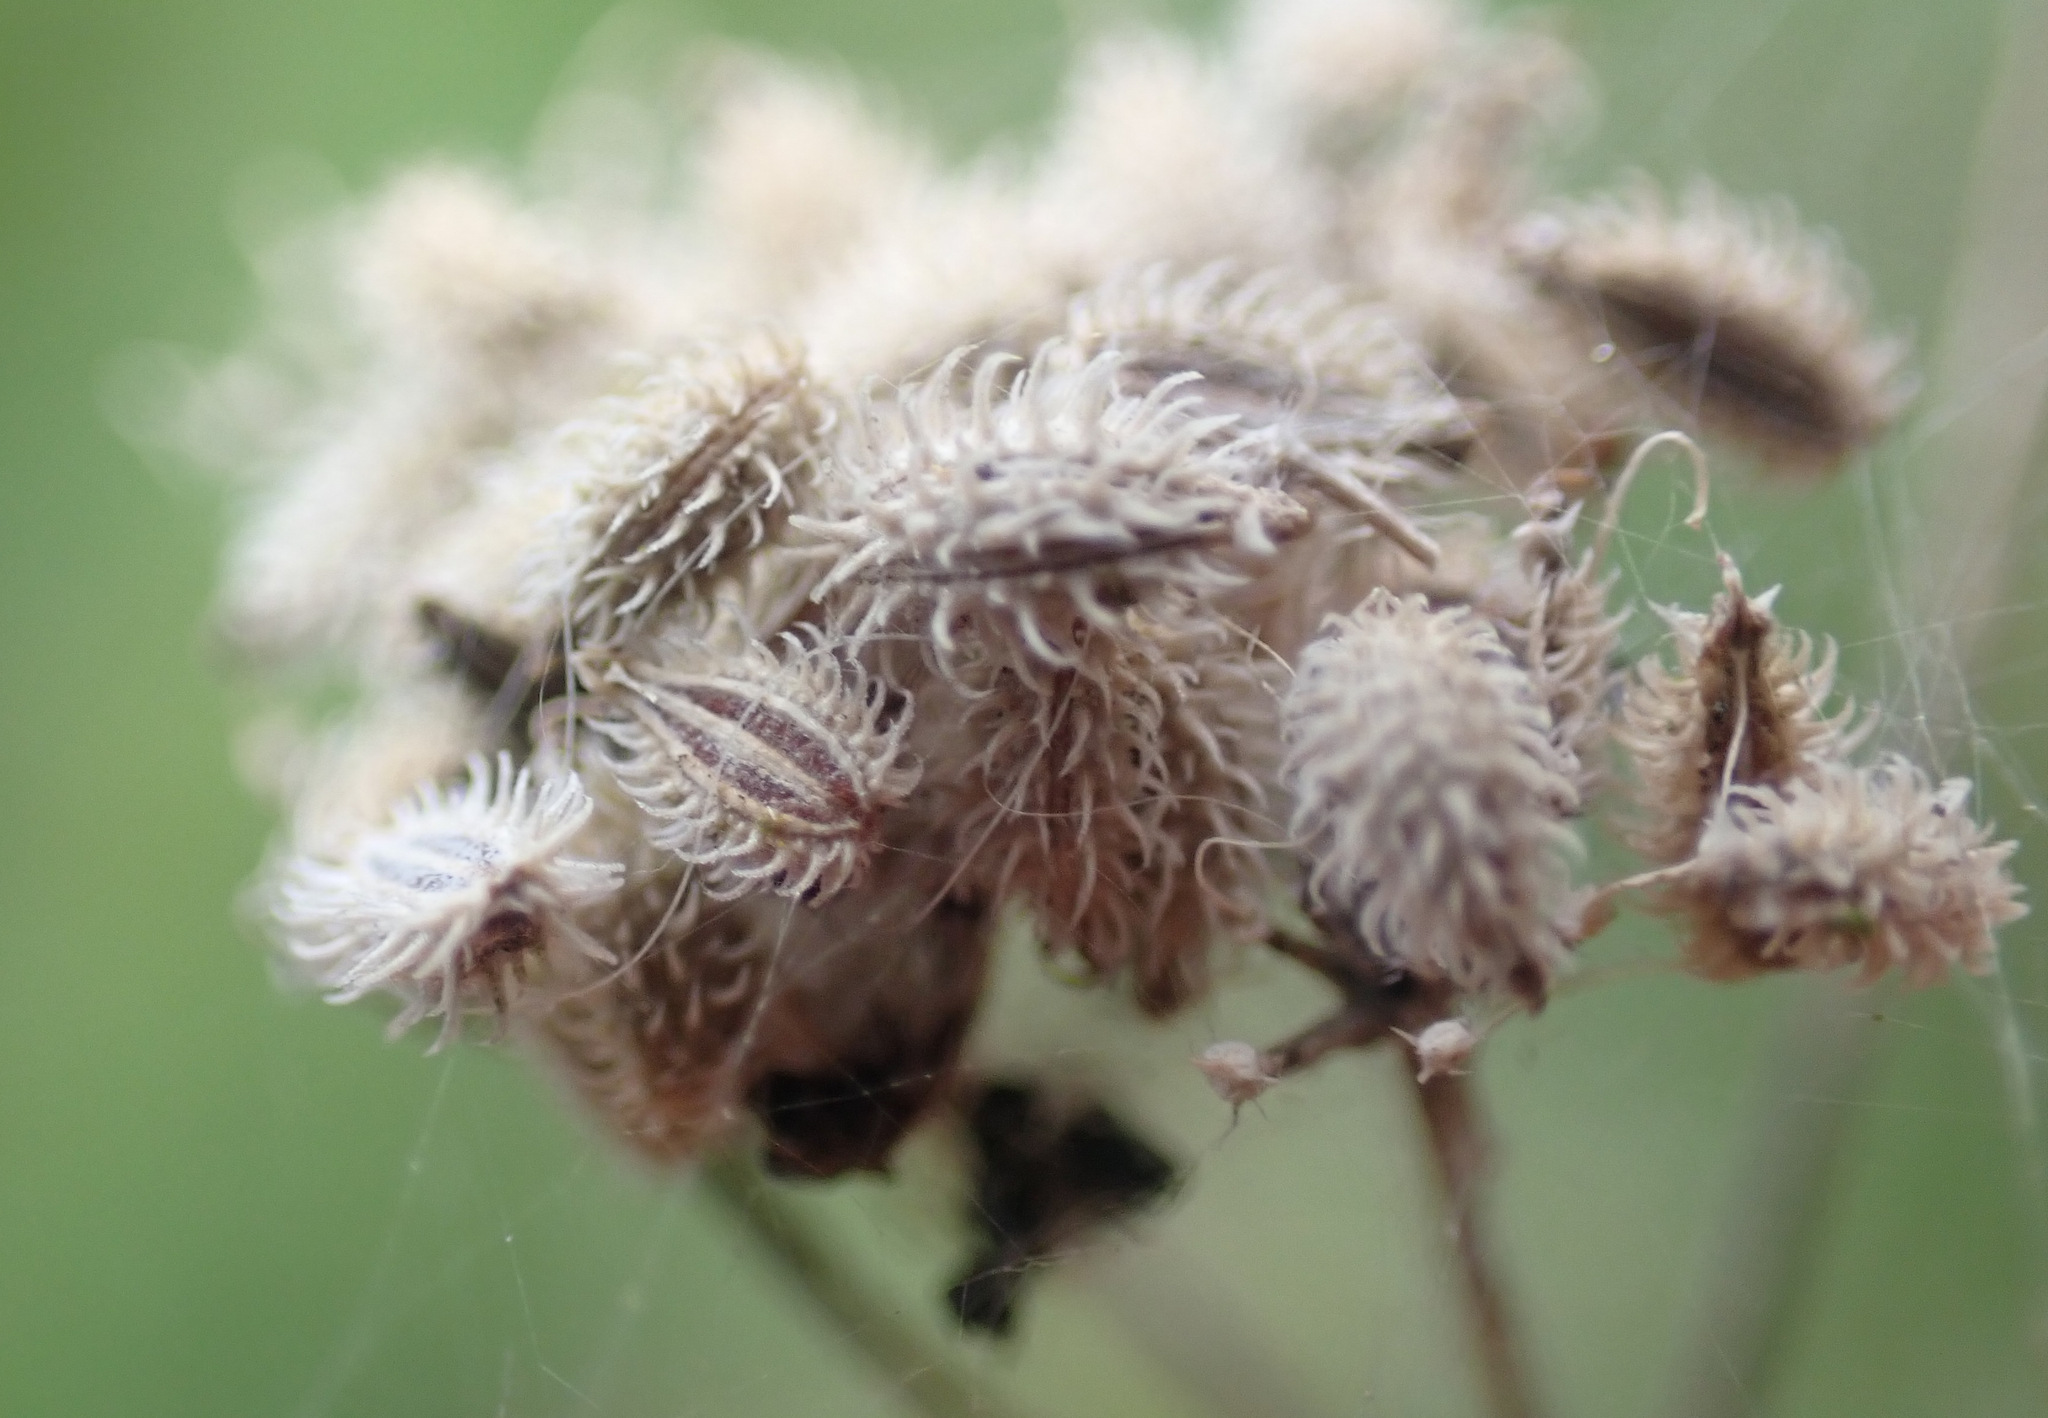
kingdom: Plantae
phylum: Tracheophyta
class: Magnoliopsida
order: Apiales
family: Apiaceae
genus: Daucus
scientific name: Daucus carota
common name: Wild carrot
